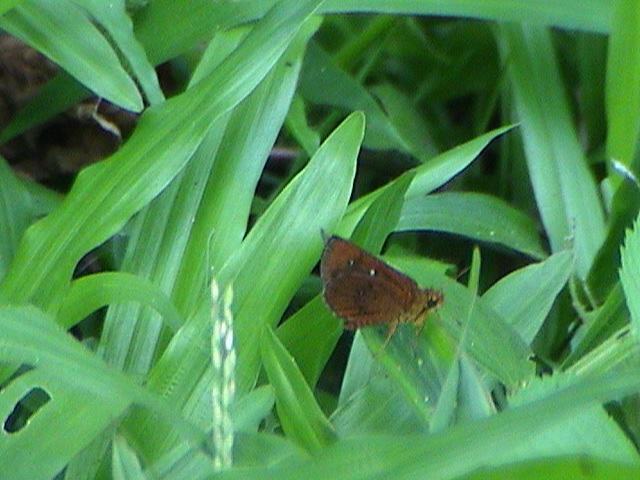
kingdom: Animalia
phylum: Arthropoda
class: Insecta
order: Lepidoptera
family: Hesperiidae
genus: Iambrix
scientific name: Iambrix salsala
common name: Chestnut bob
